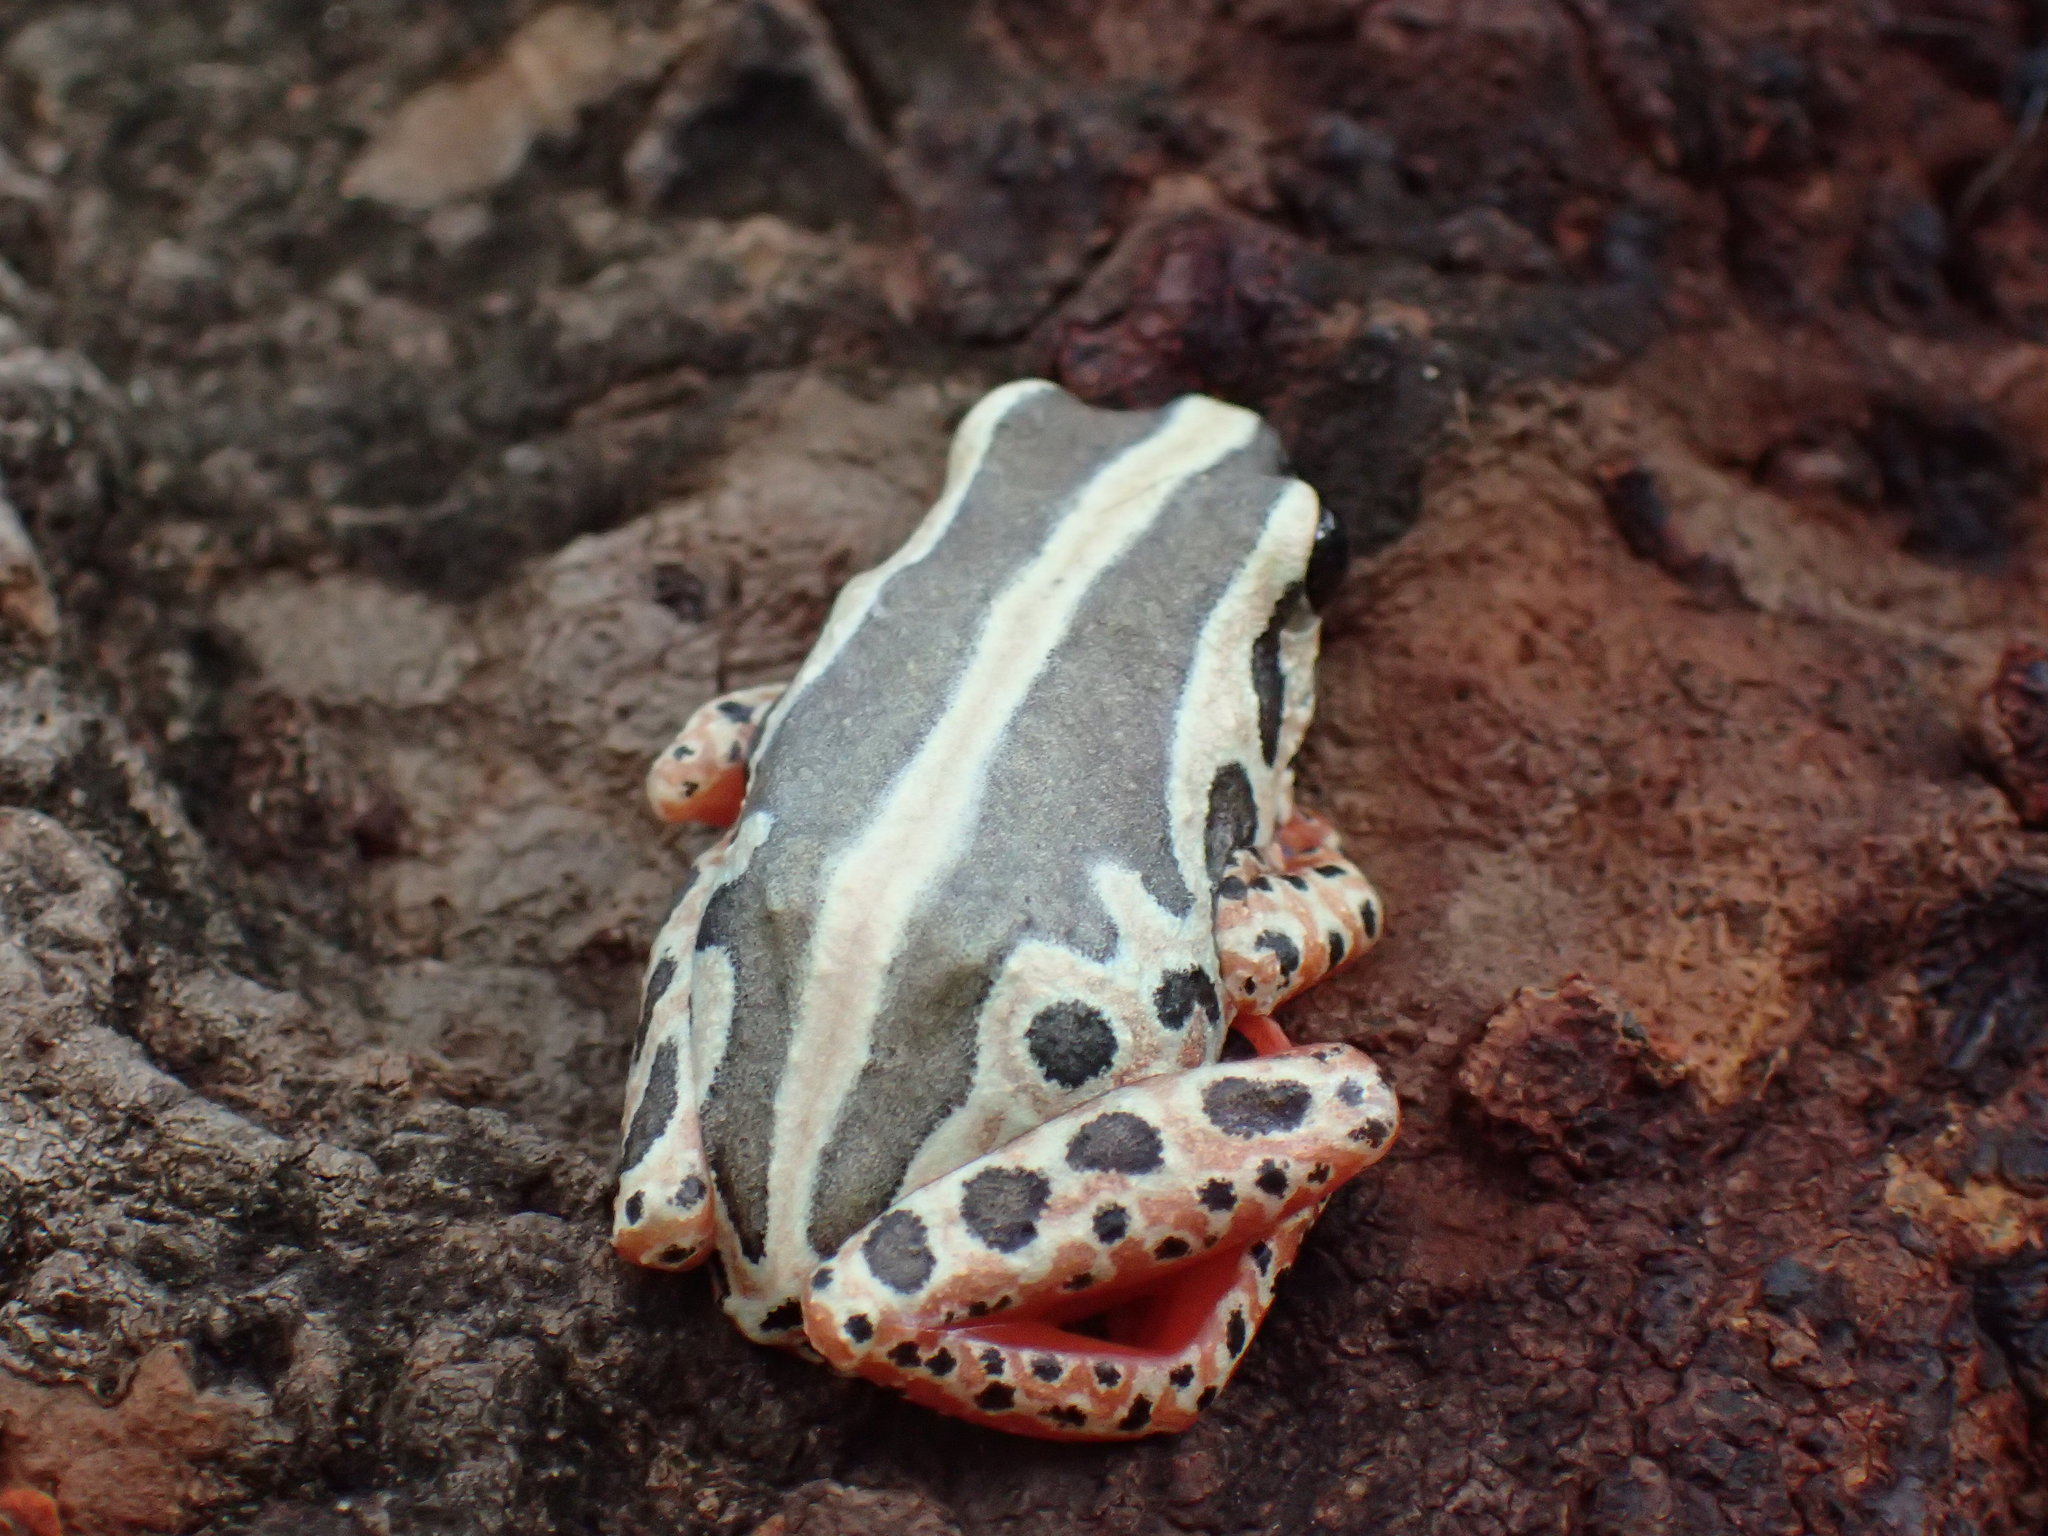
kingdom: Animalia
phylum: Chordata
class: Amphibia
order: Anura
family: Hyperoliidae
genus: Hyperolius
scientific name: Hyperolius viridiflavus
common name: Common reed frog
